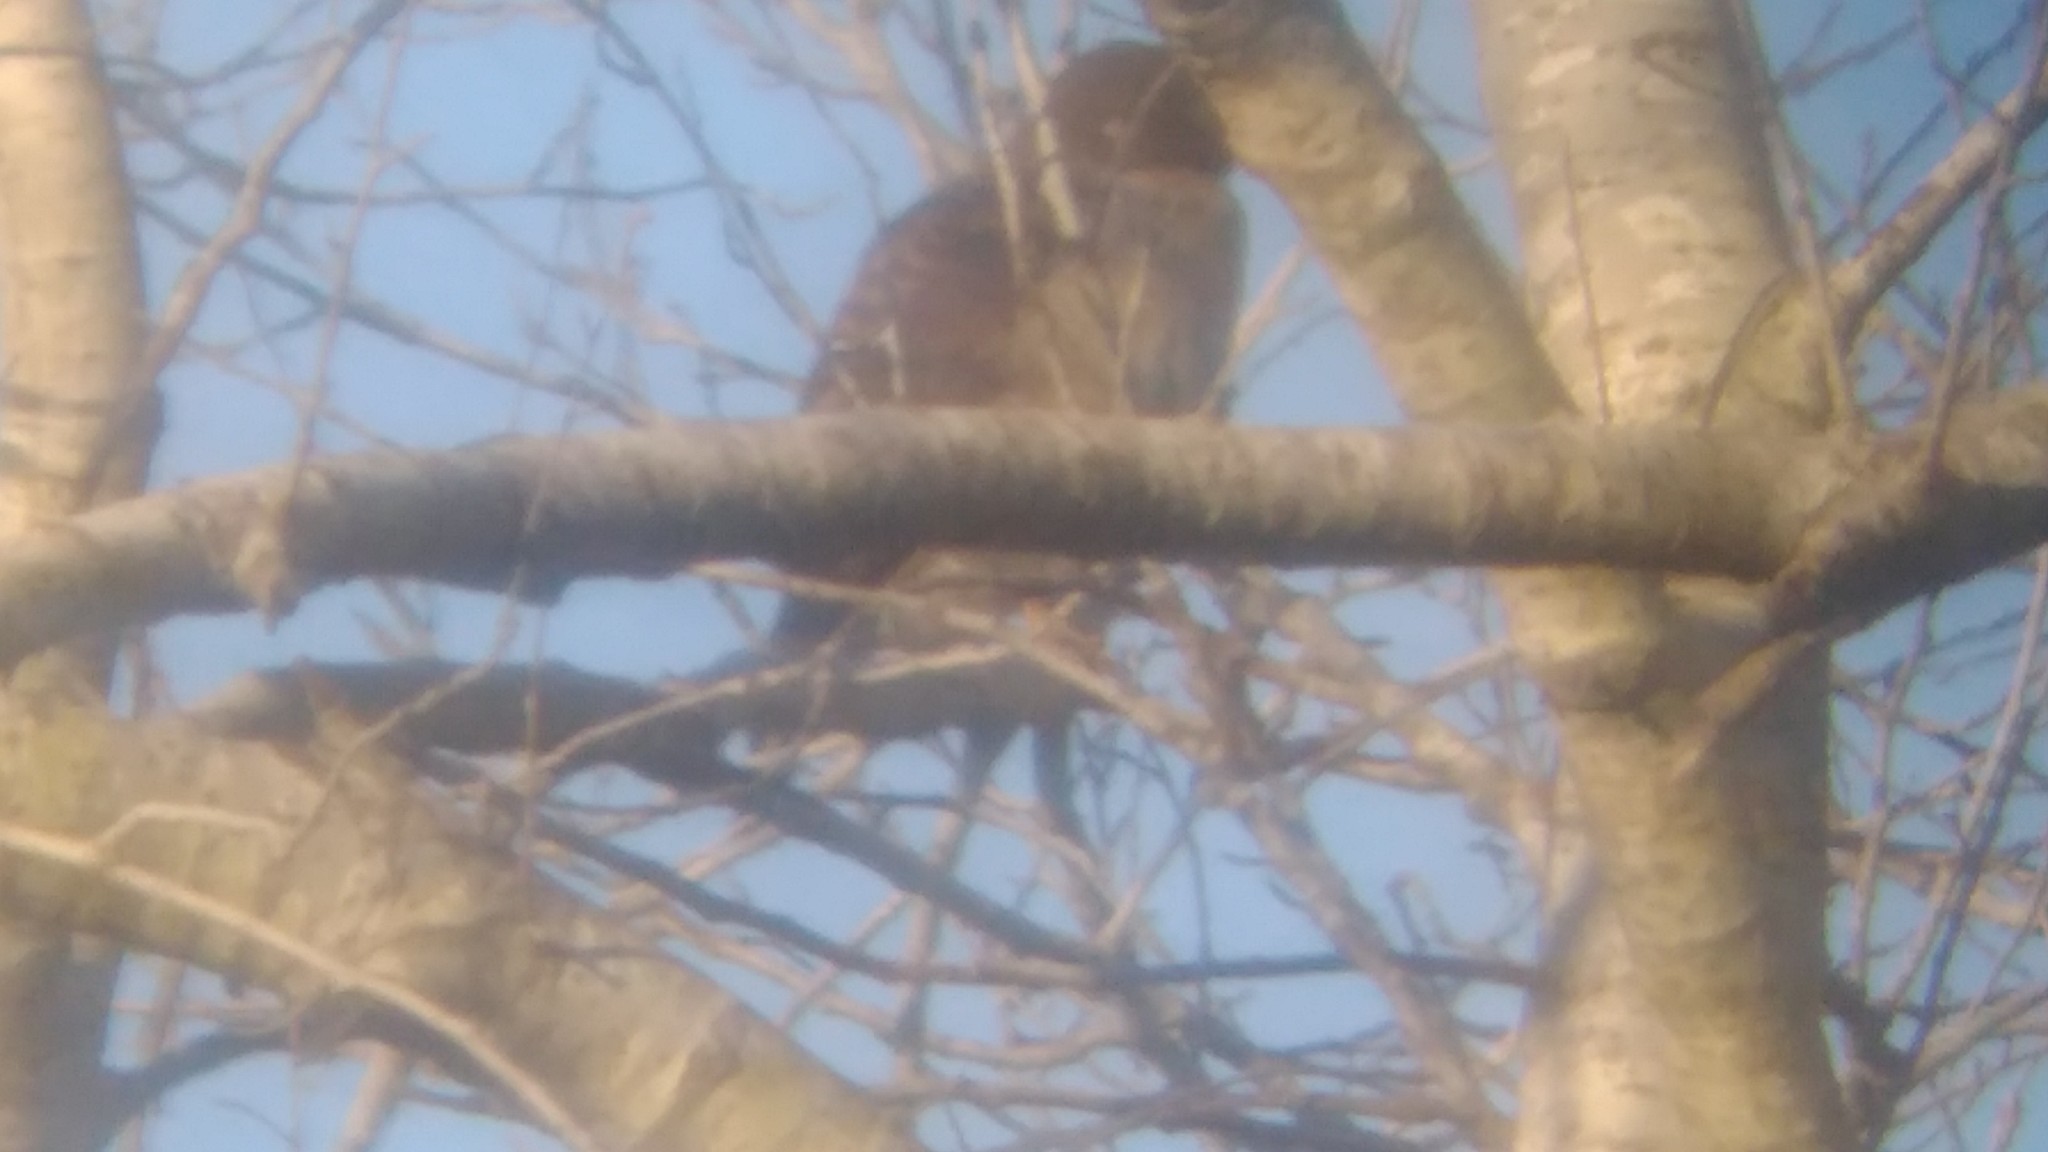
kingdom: Animalia
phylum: Chordata
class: Aves
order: Accipitriformes
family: Accipitridae
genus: Rupornis
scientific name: Rupornis magnirostris
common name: Roadside hawk
